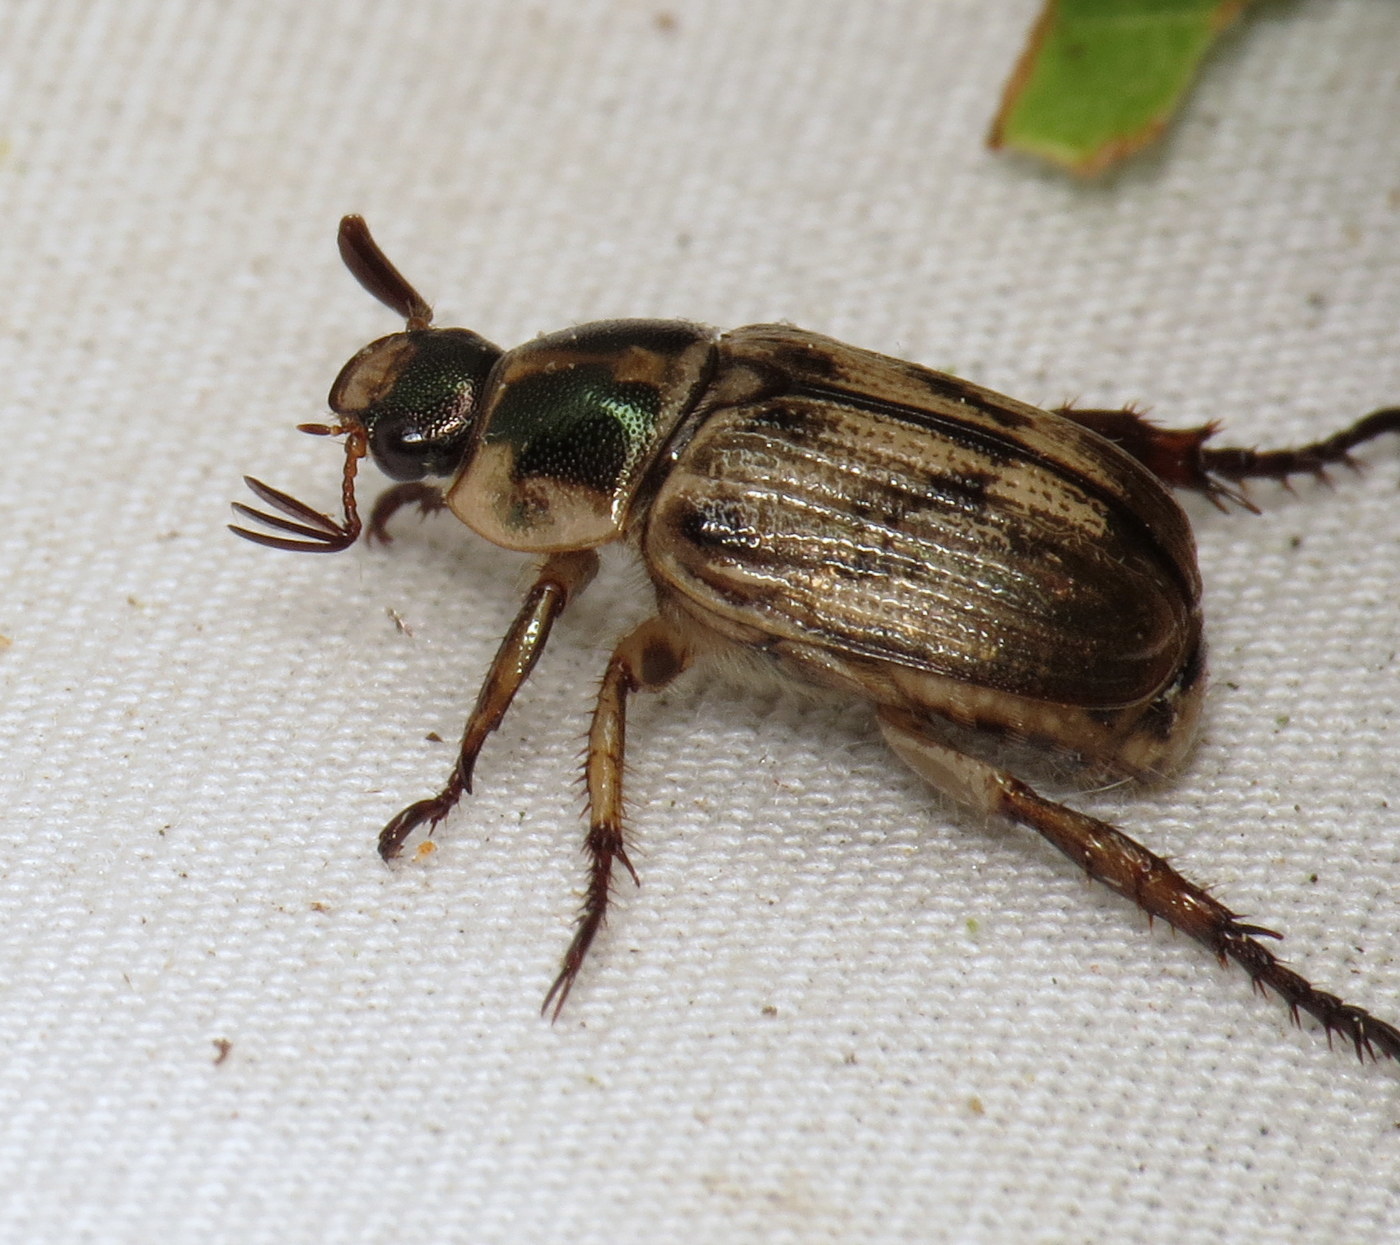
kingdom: Animalia
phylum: Arthropoda
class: Insecta
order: Coleoptera
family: Scarabaeidae
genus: Exomala
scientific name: Exomala orientalis
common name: Oriental beetle
